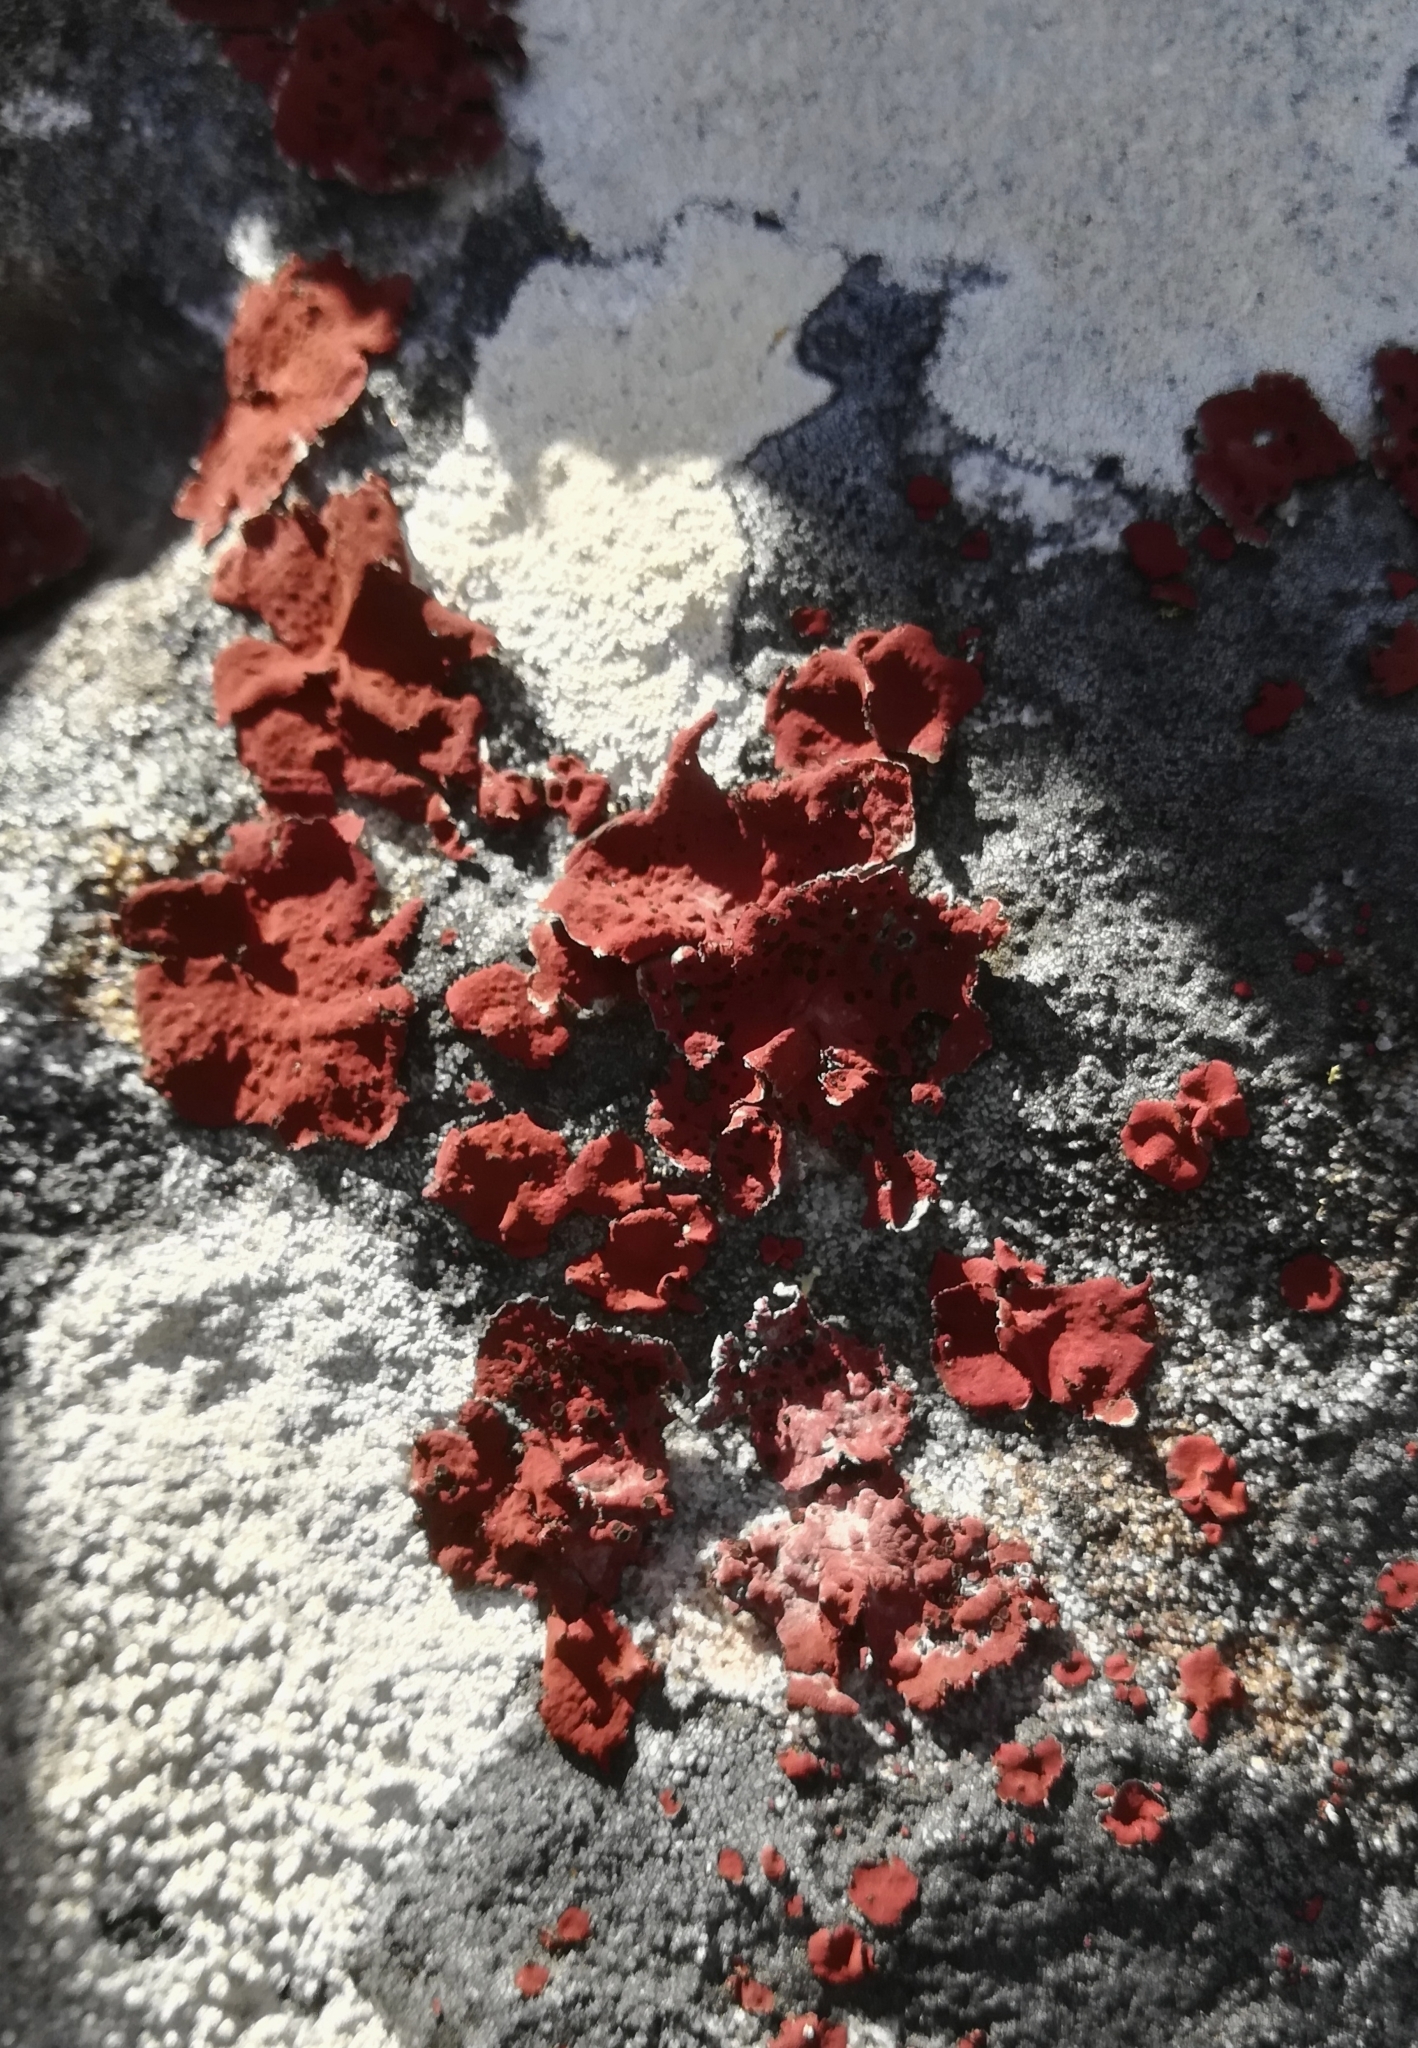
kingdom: Fungi
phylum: Ascomycota
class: Lecanoromycetes
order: Umbilicariales
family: Umbilicariaceae
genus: Lasallia
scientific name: Lasallia rubiginosa
